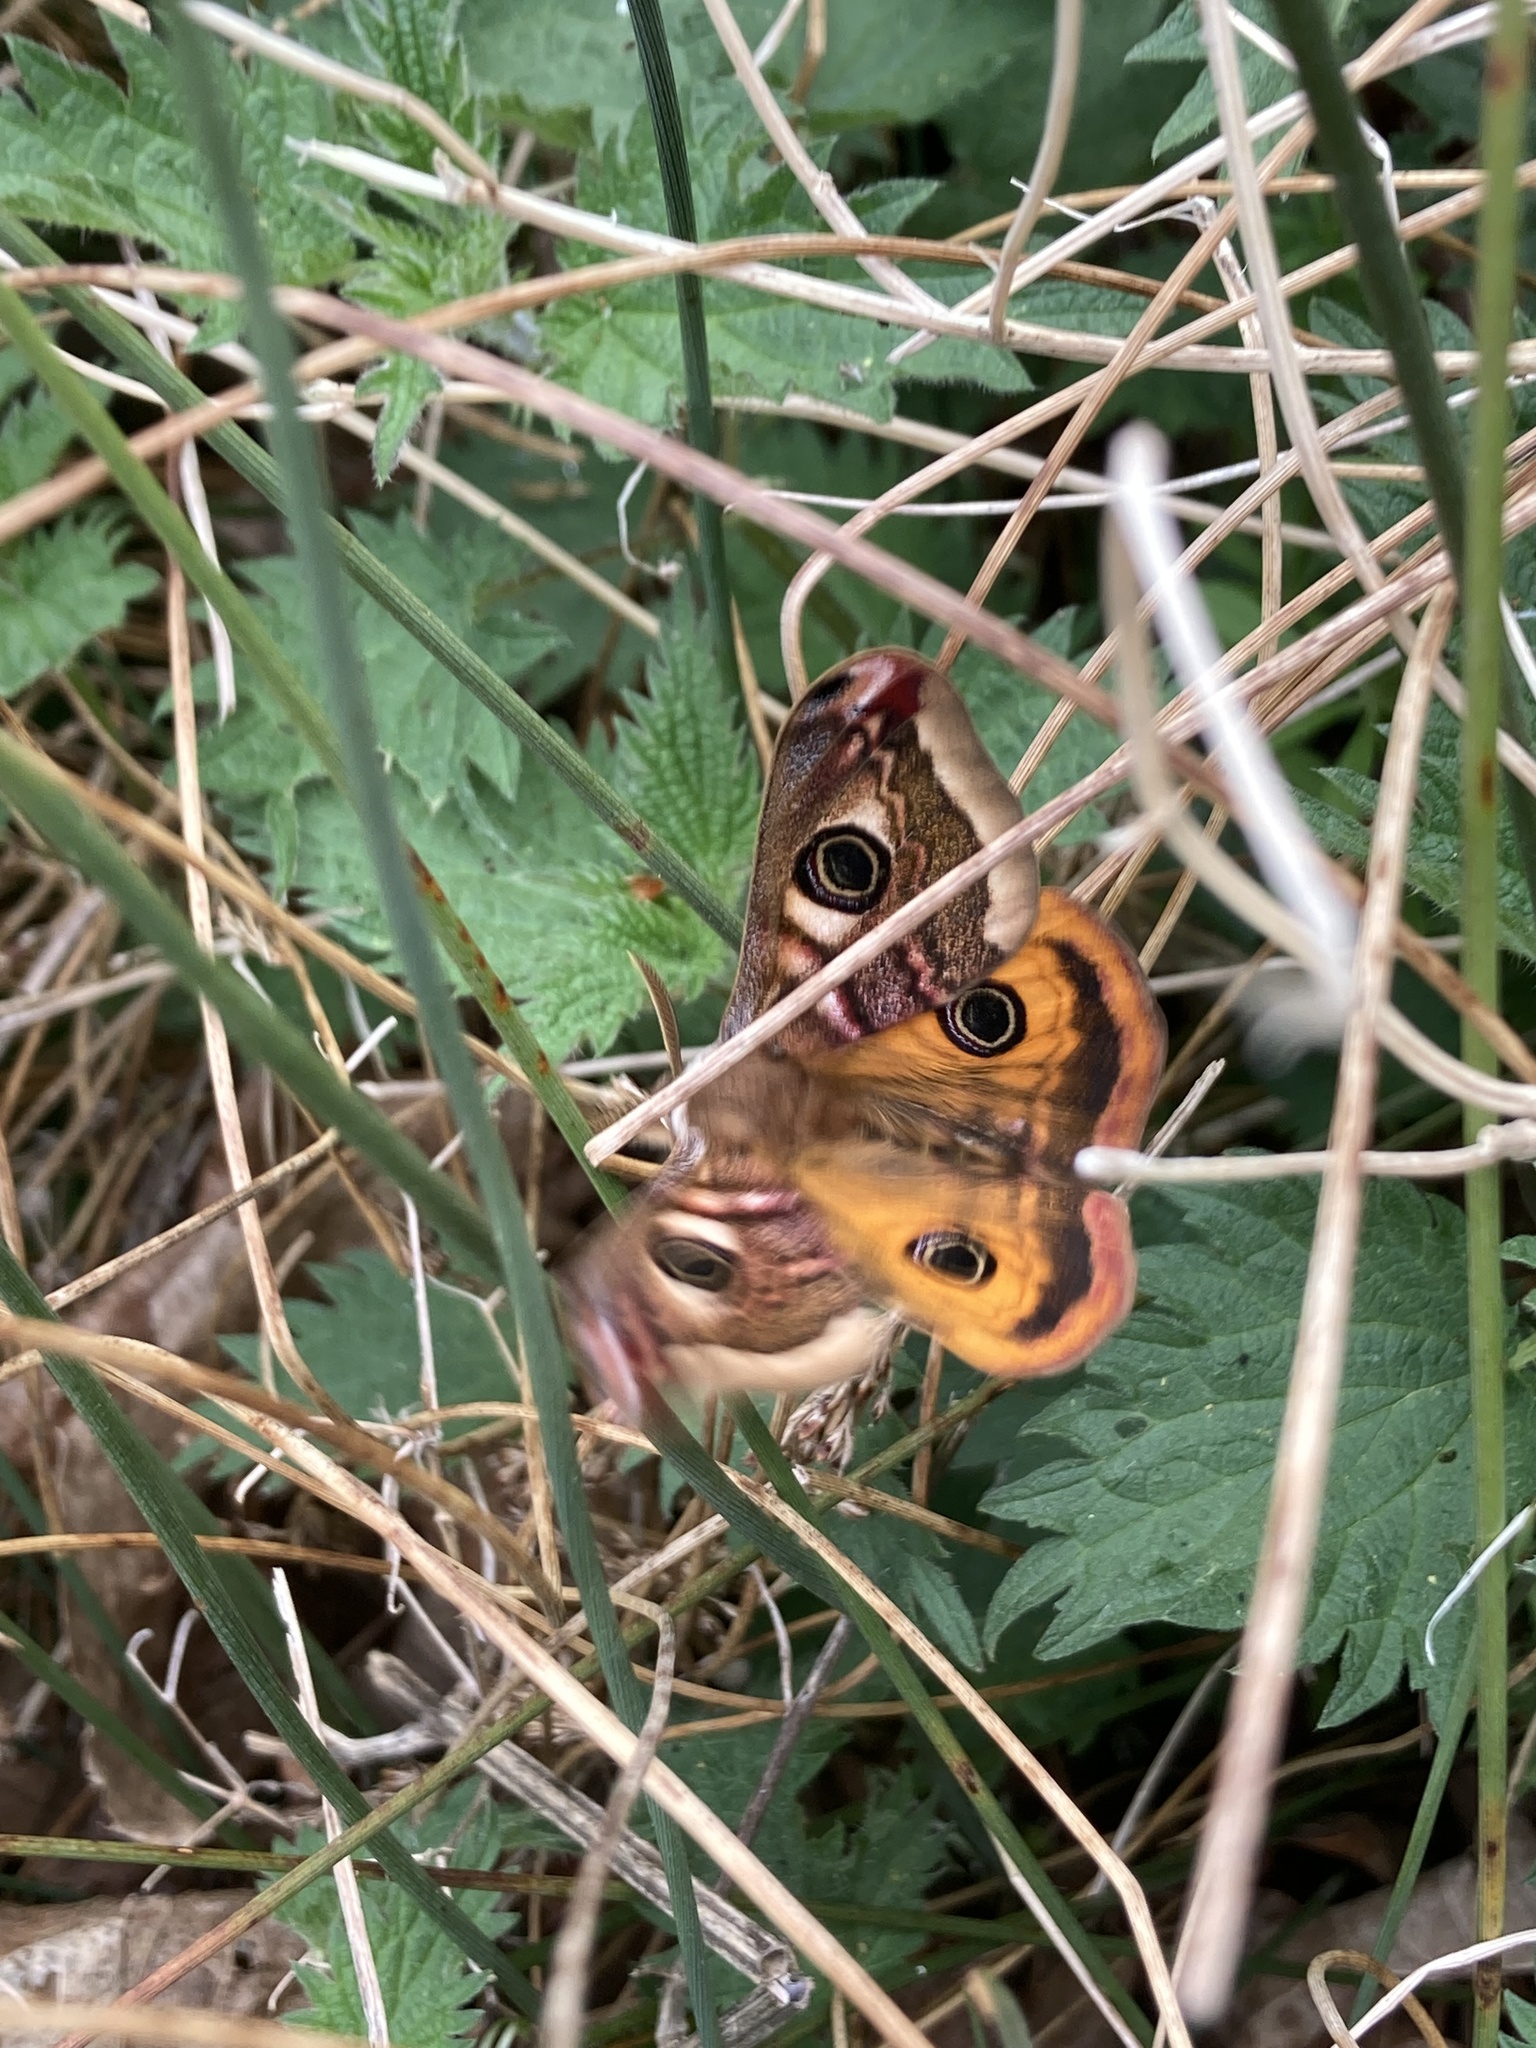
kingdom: Animalia
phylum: Arthropoda
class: Insecta
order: Lepidoptera
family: Saturniidae
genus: Saturnia
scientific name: Saturnia pavonia
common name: Emperor moth
